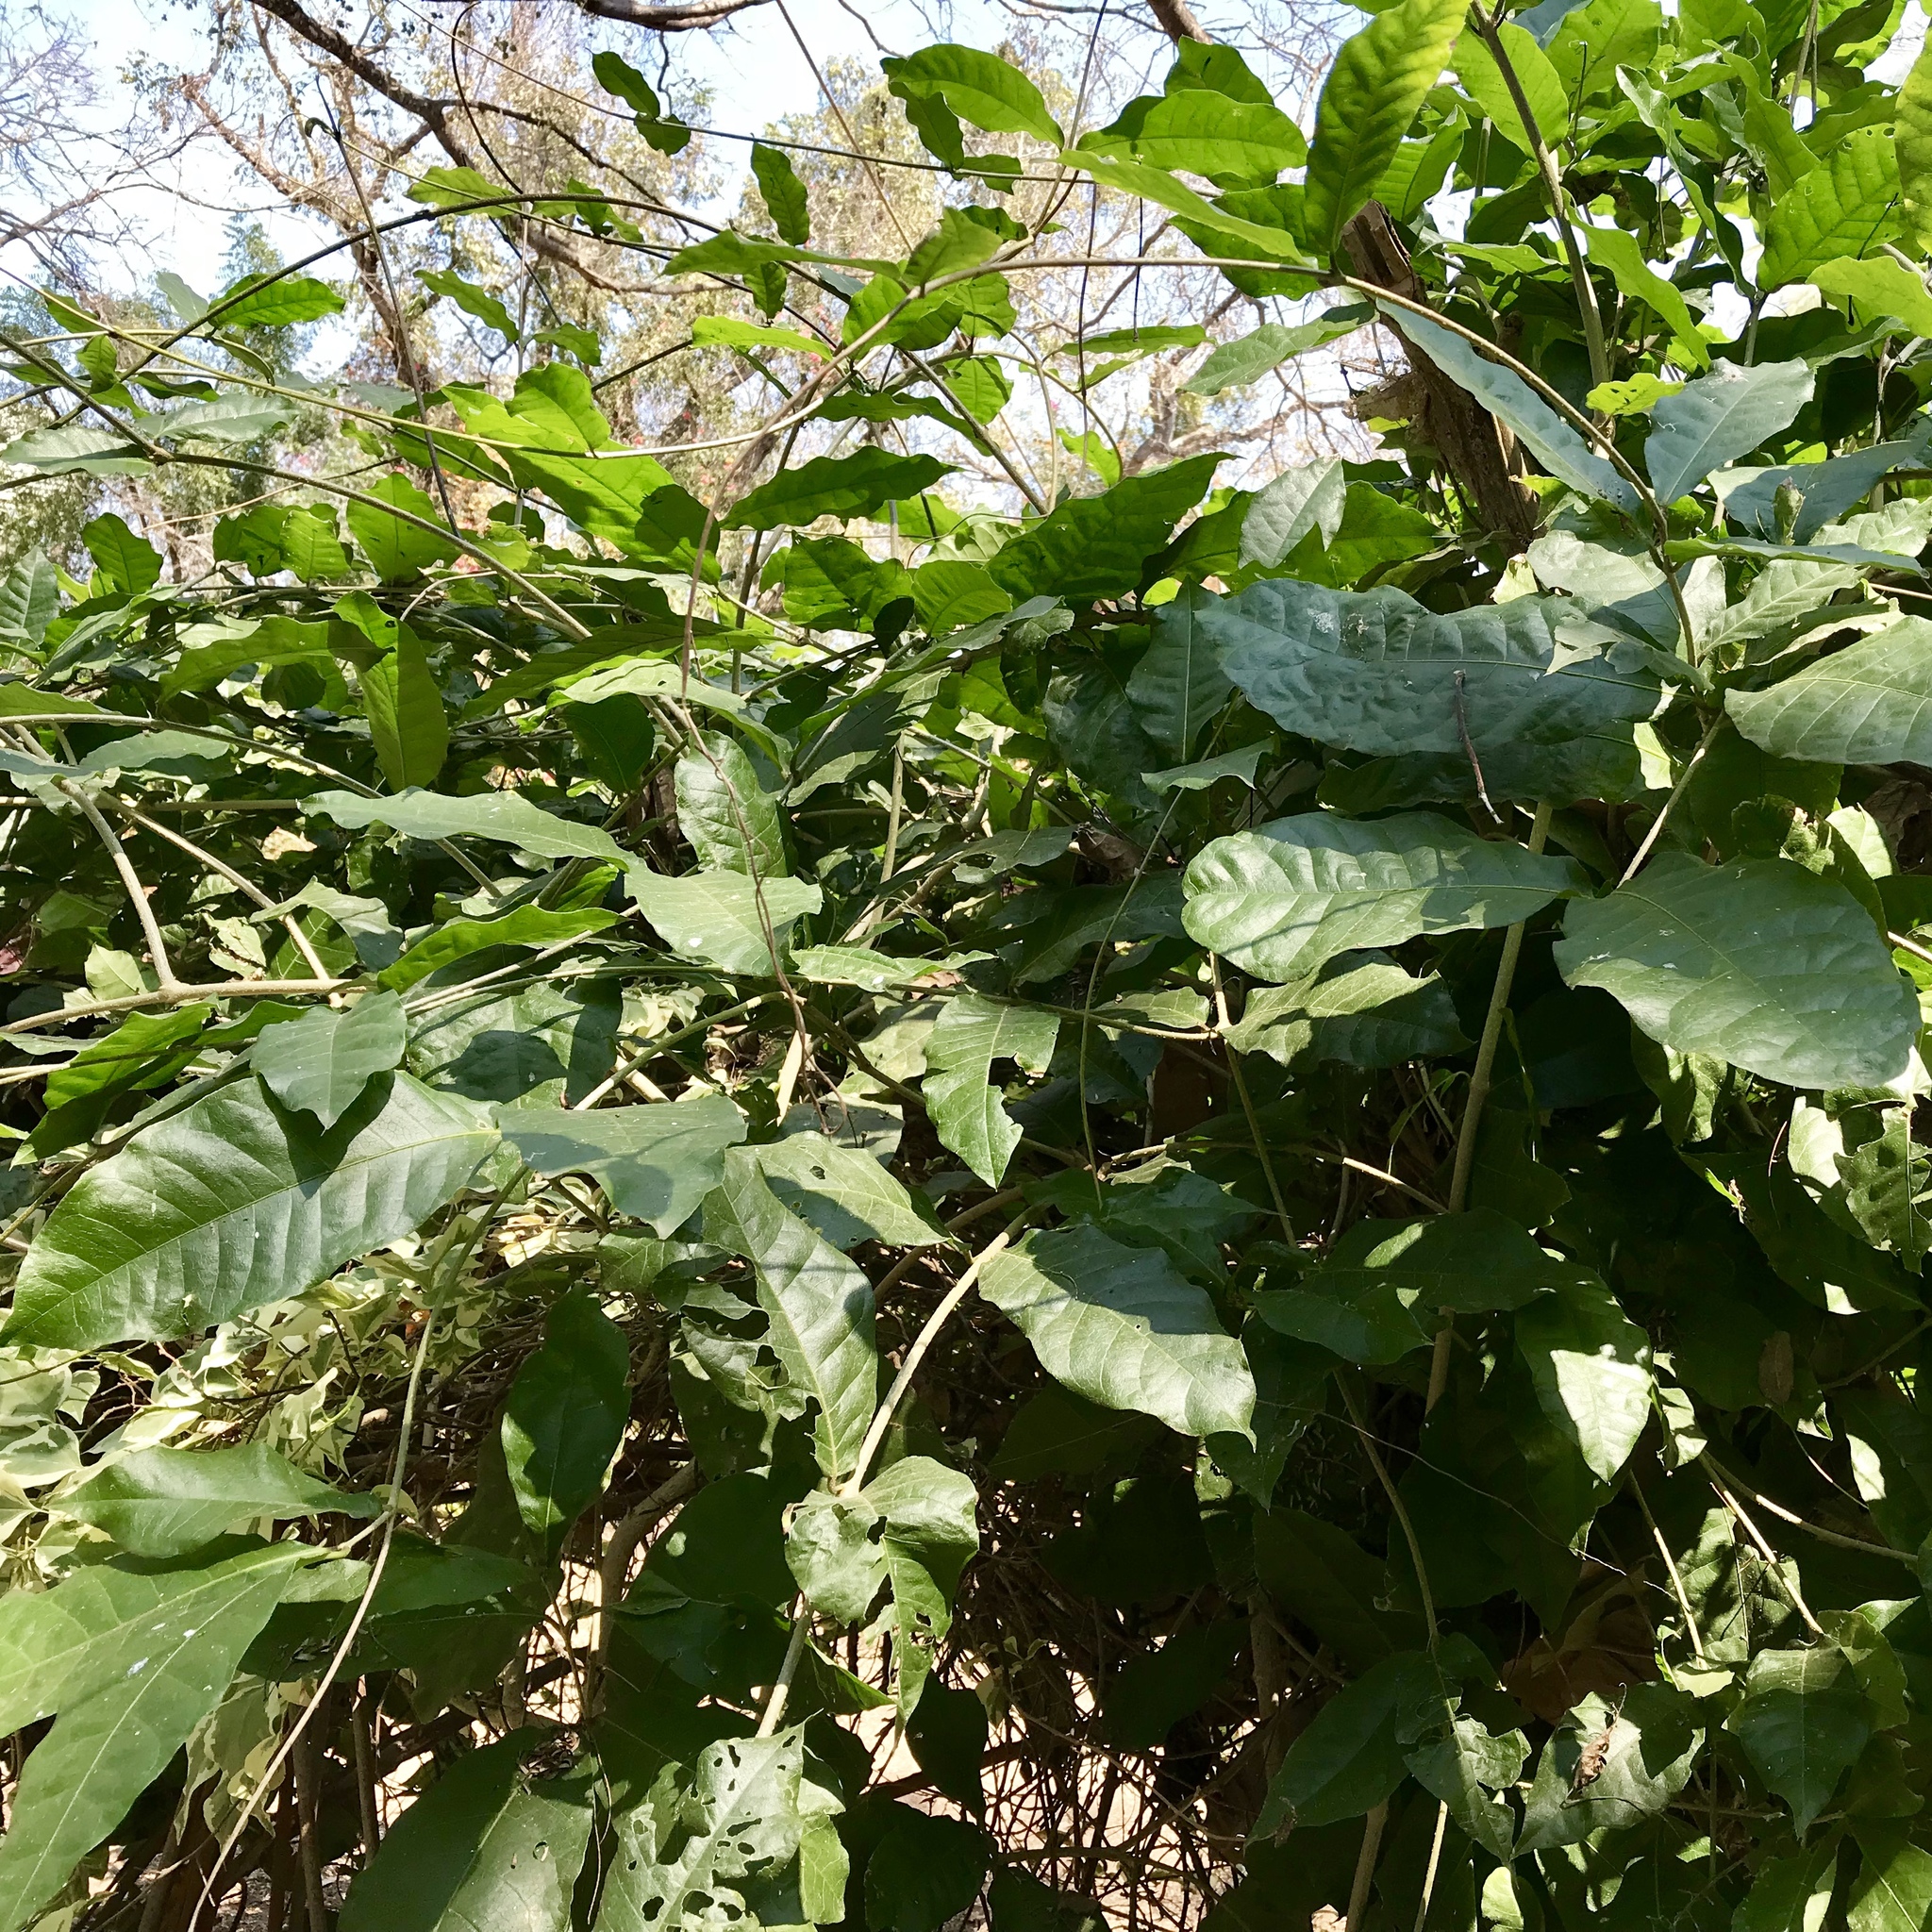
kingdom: Plantae
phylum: Tracheophyta
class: Magnoliopsida
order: Lamiales
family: Verbenaceae
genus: Petrea
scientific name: Petrea volubilis
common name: Queen's-wreath
